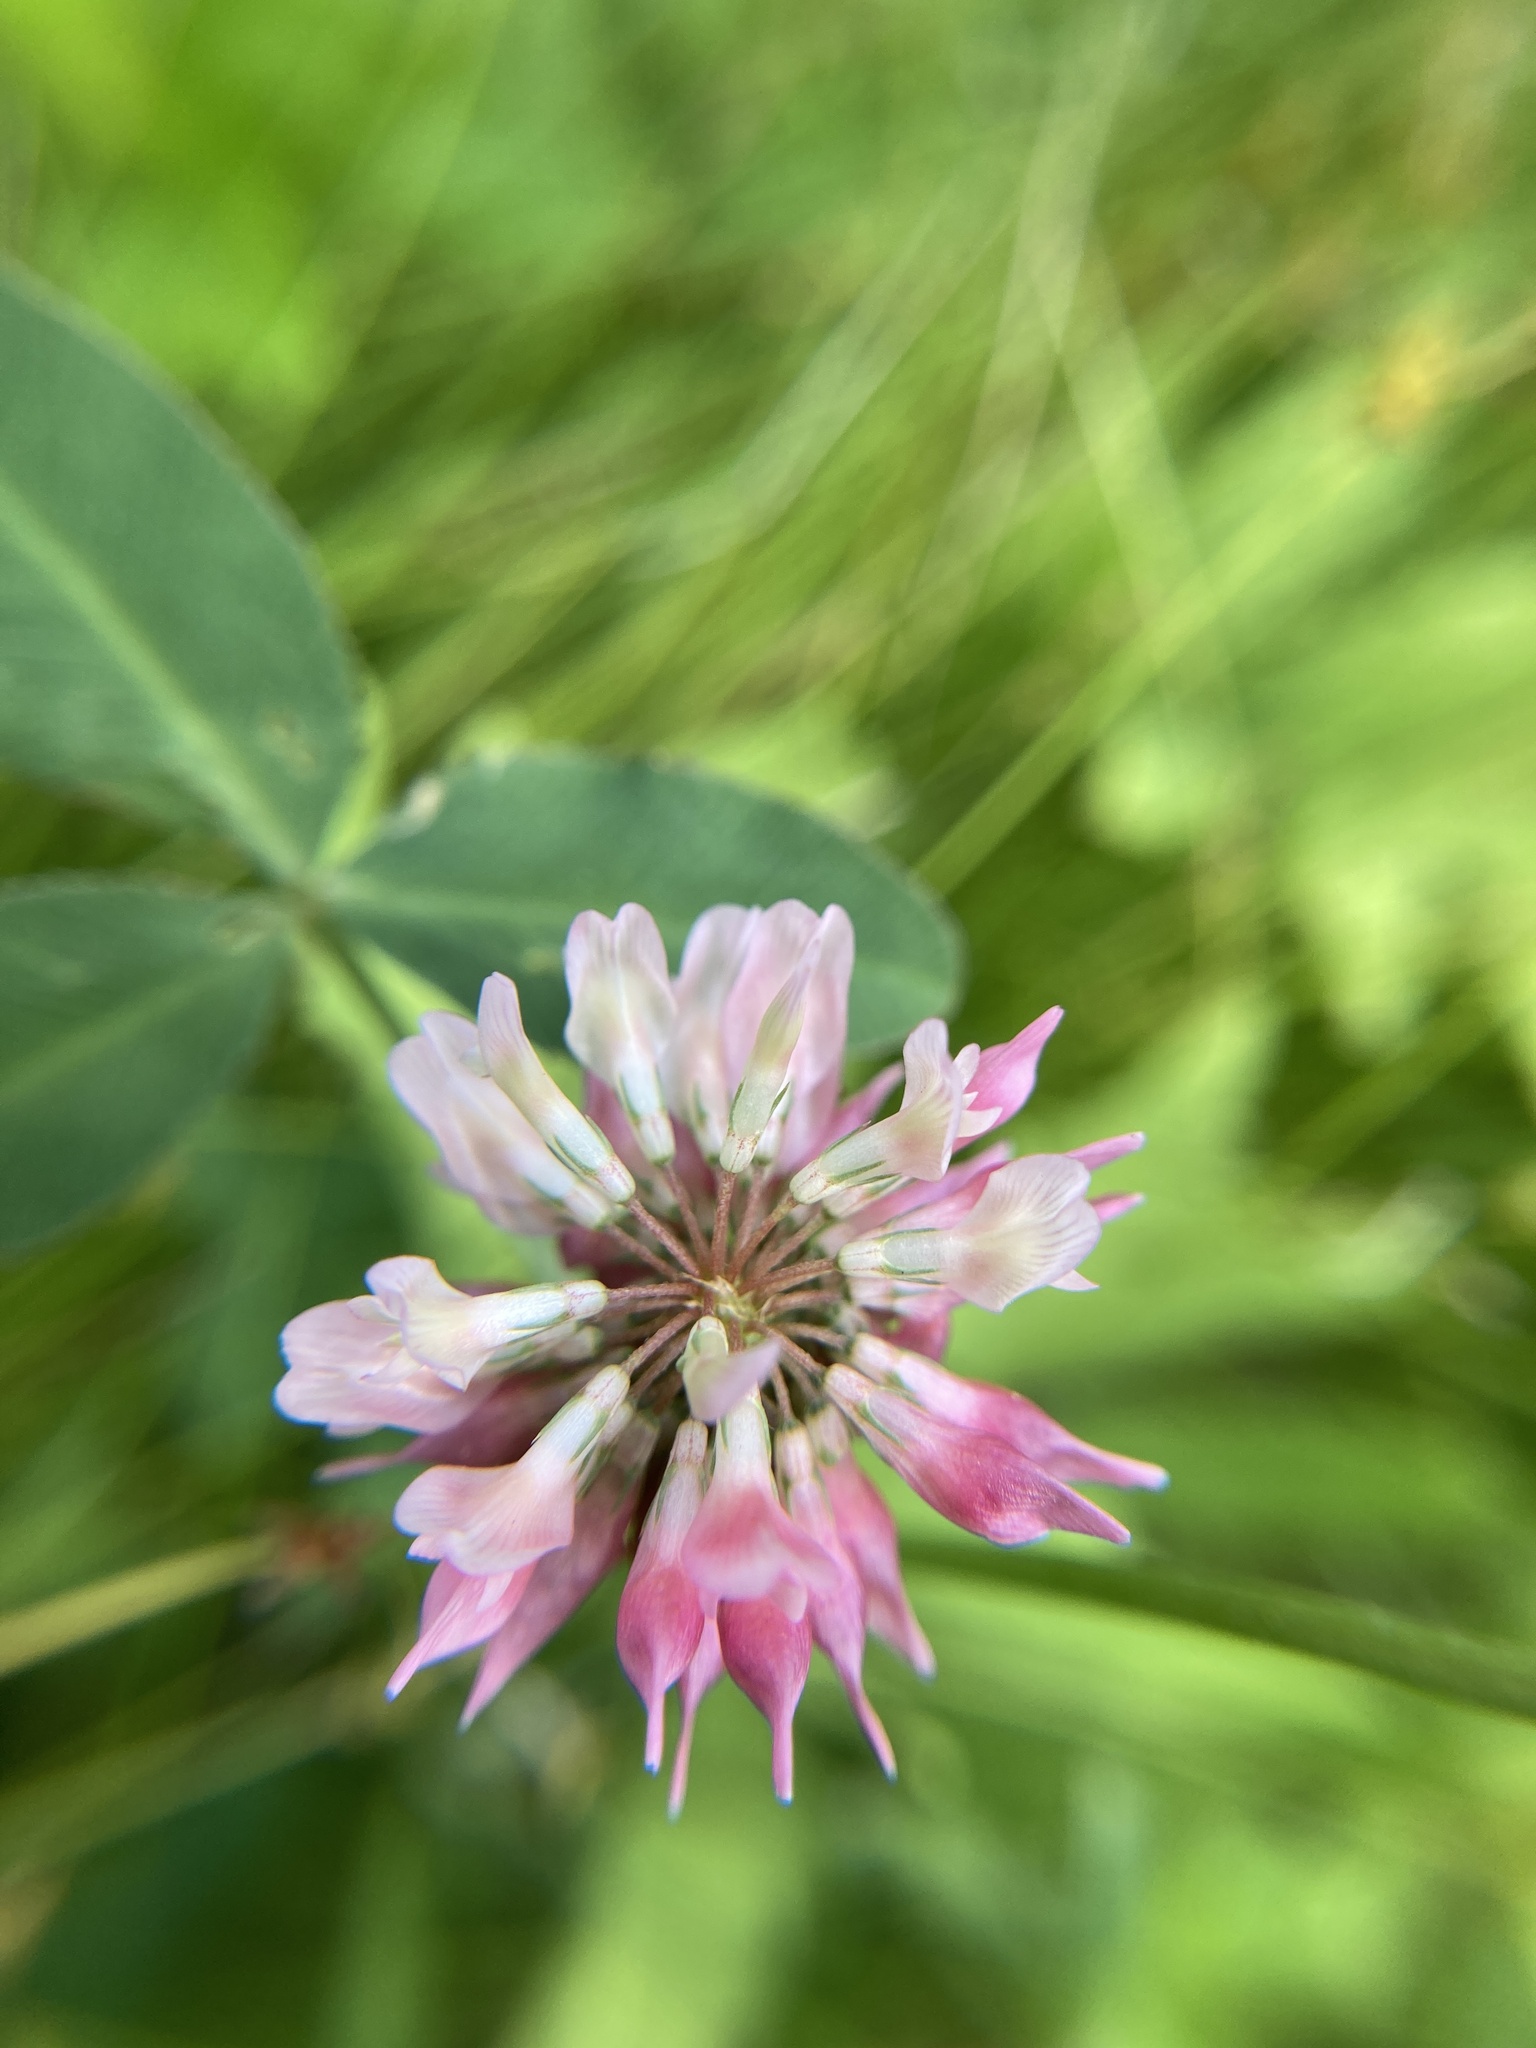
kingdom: Plantae
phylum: Tracheophyta
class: Magnoliopsida
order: Fabales
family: Fabaceae
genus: Trifolium
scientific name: Trifolium hybridum
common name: Alsike clover
